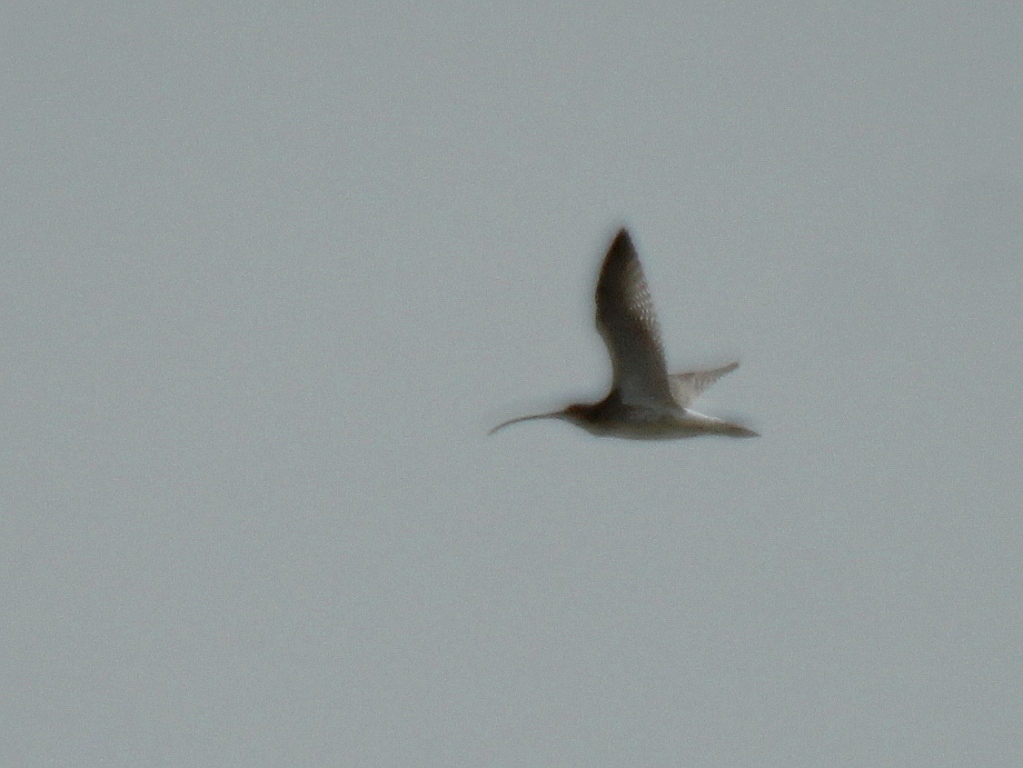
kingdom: Animalia
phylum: Chordata
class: Aves
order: Charadriiformes
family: Scolopacidae
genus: Numenius
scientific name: Numenius arquata
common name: Eurasian curlew
